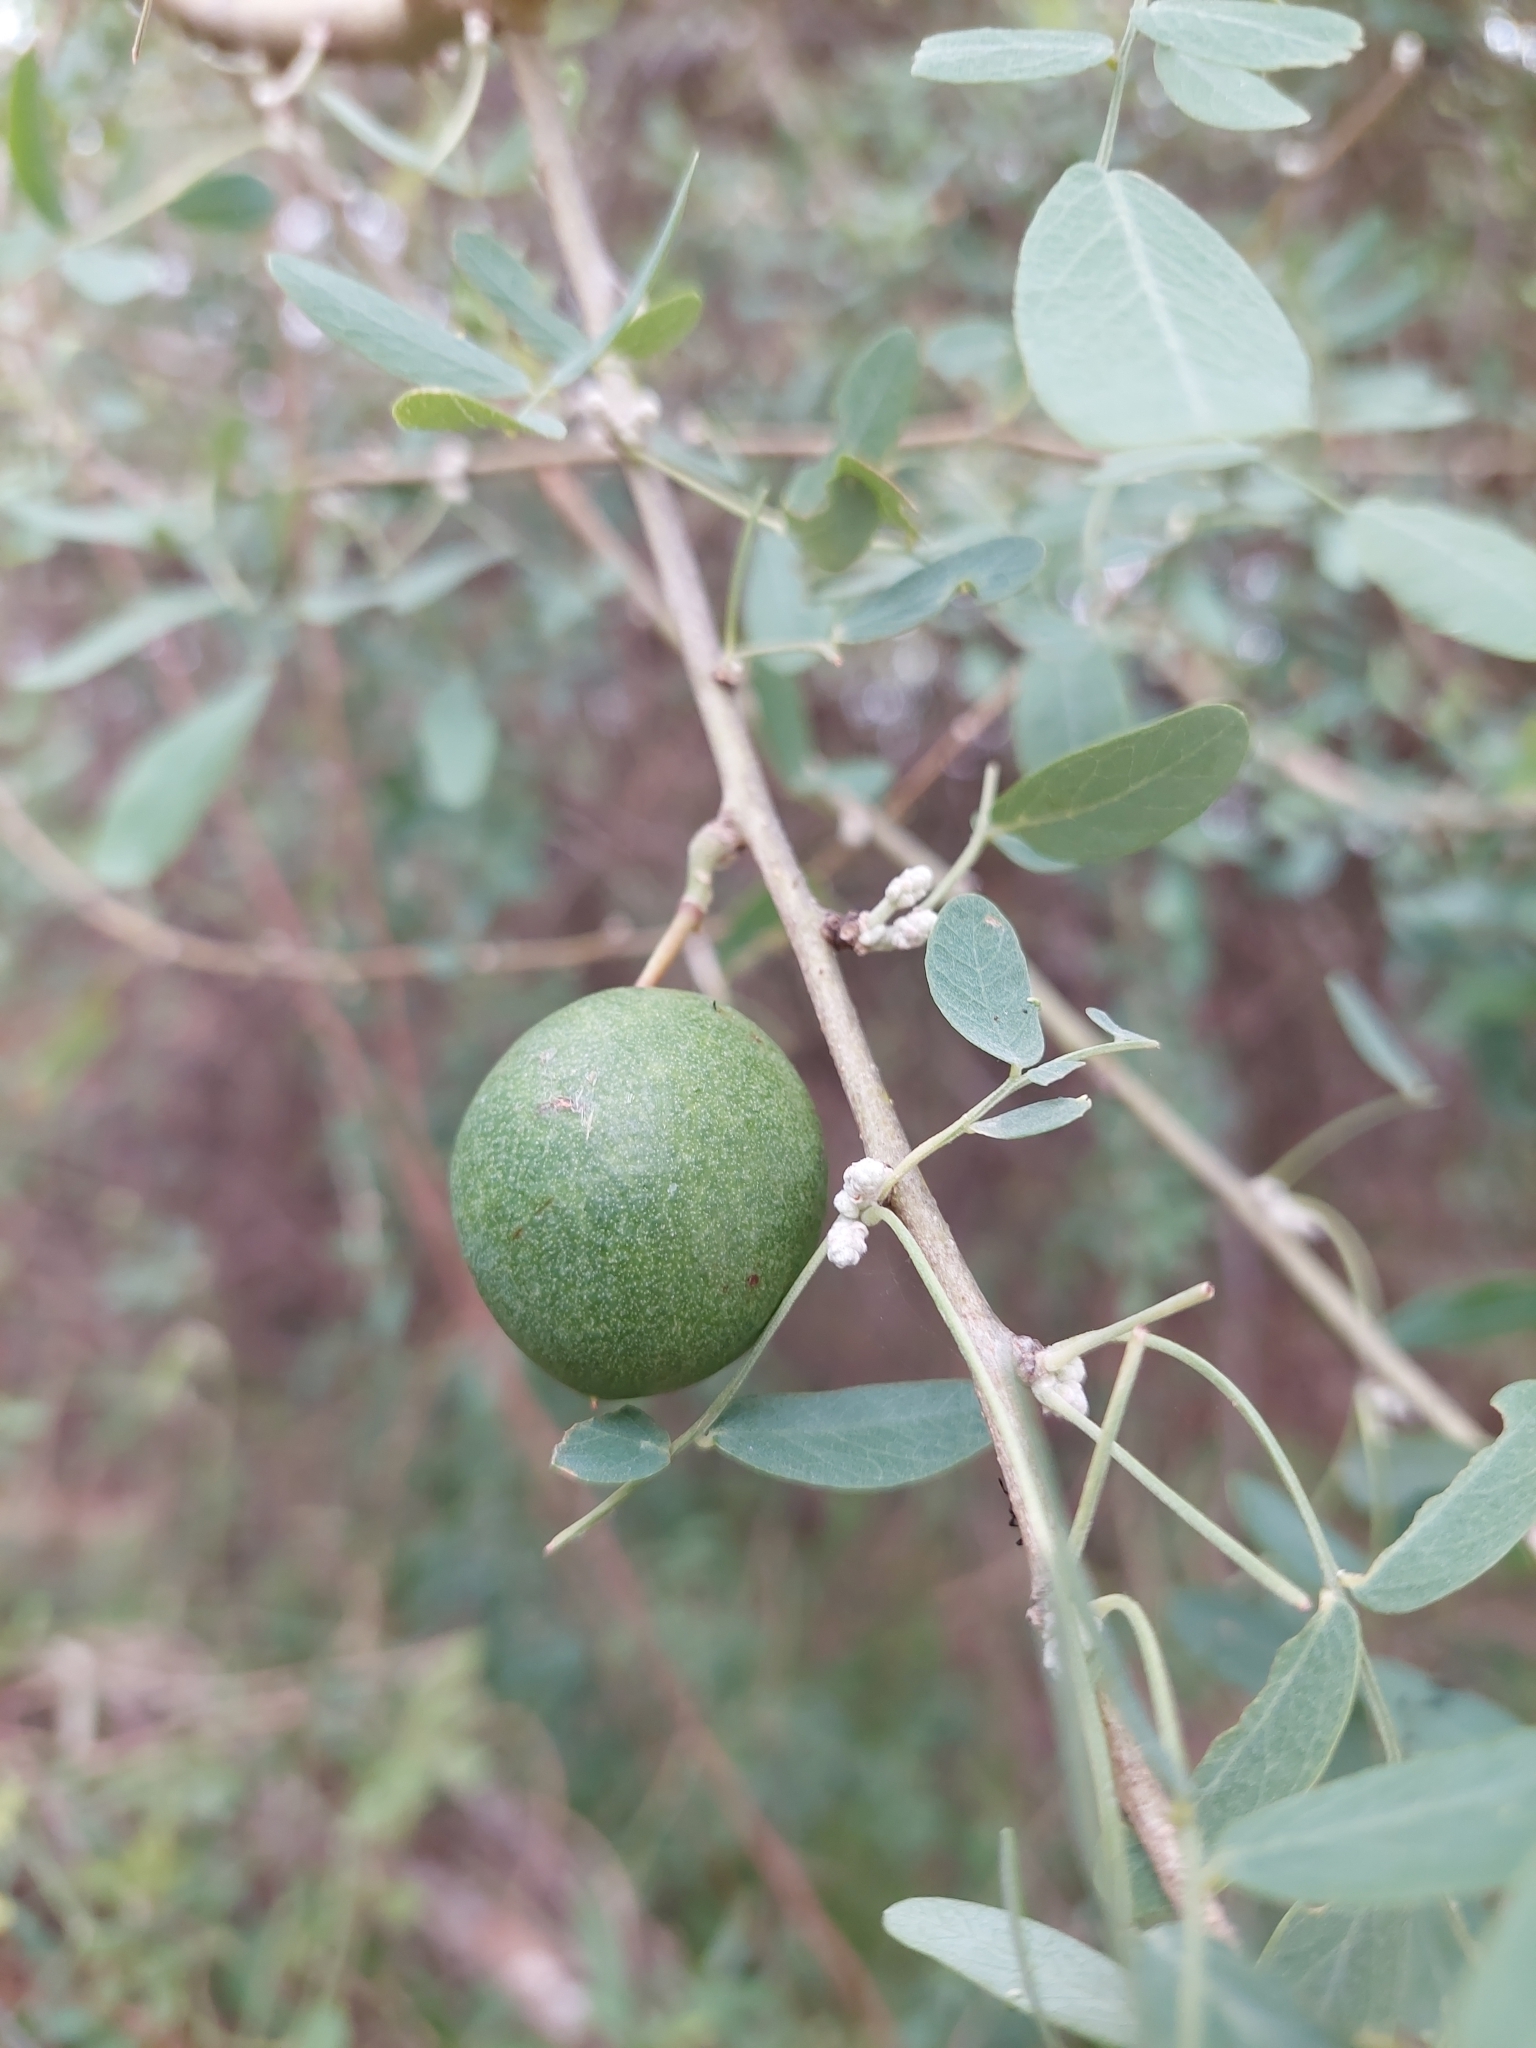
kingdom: Plantae
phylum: Tracheophyta
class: Magnoliopsida
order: Fabales
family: Fabaceae
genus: Geoffroea
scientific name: Geoffroea decorticans
